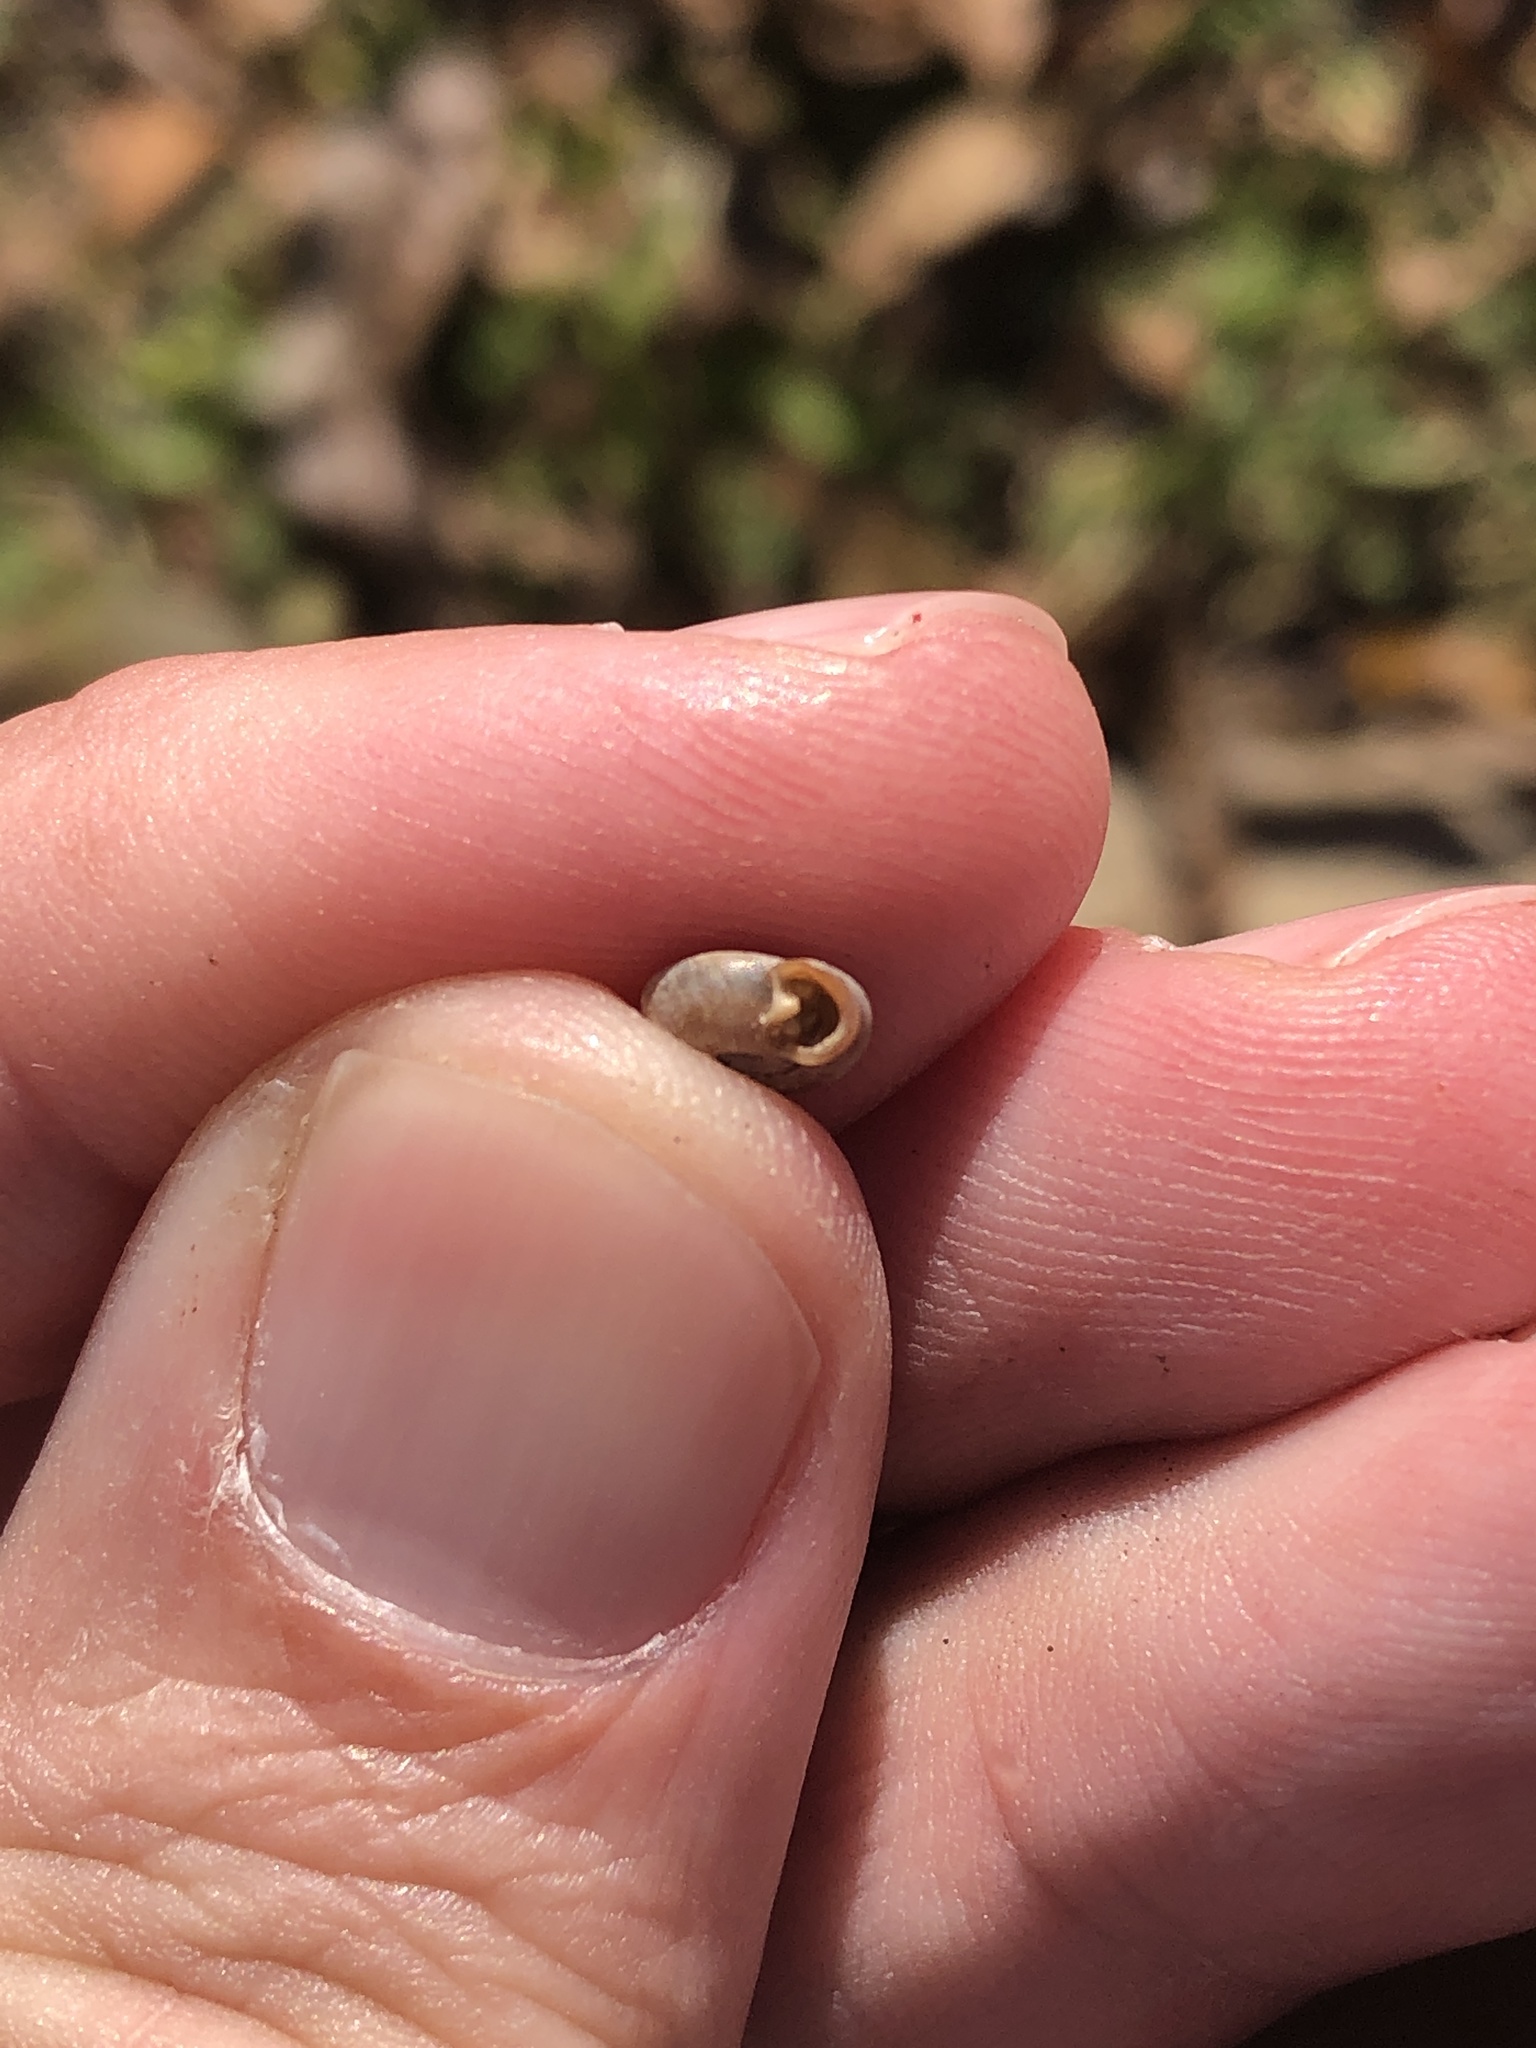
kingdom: Animalia
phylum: Mollusca
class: Gastropoda
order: Stylommatophora
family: Polygyridae
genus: Polygyra
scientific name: Polygyra cereolus
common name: Southern flatcone snail
